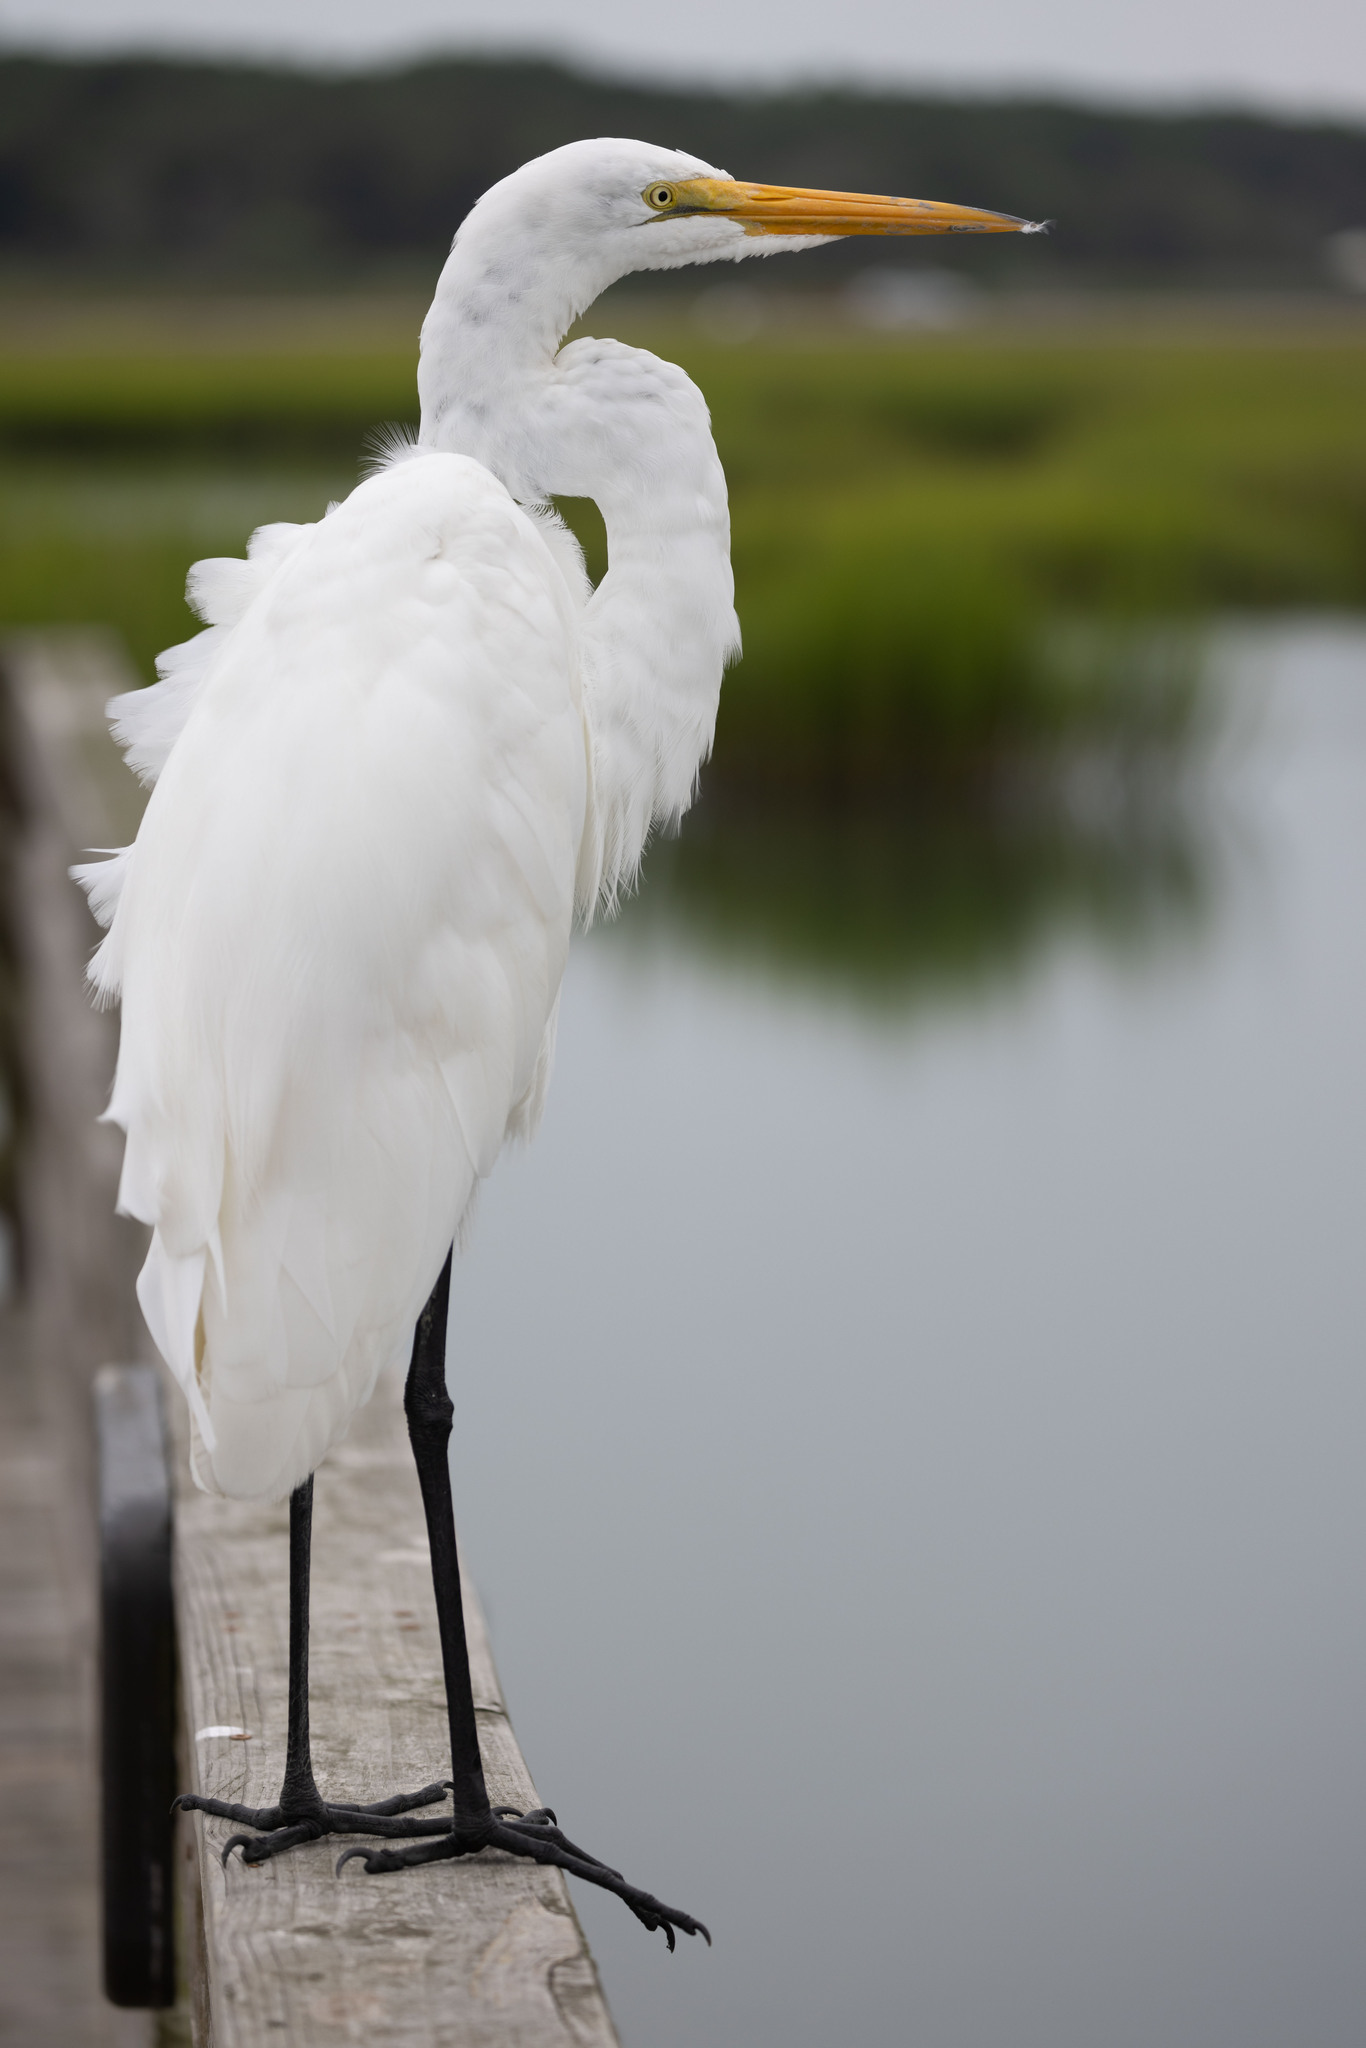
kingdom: Animalia
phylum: Chordata
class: Aves
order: Pelecaniformes
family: Ardeidae
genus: Ardea
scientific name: Ardea alba
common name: Great egret
